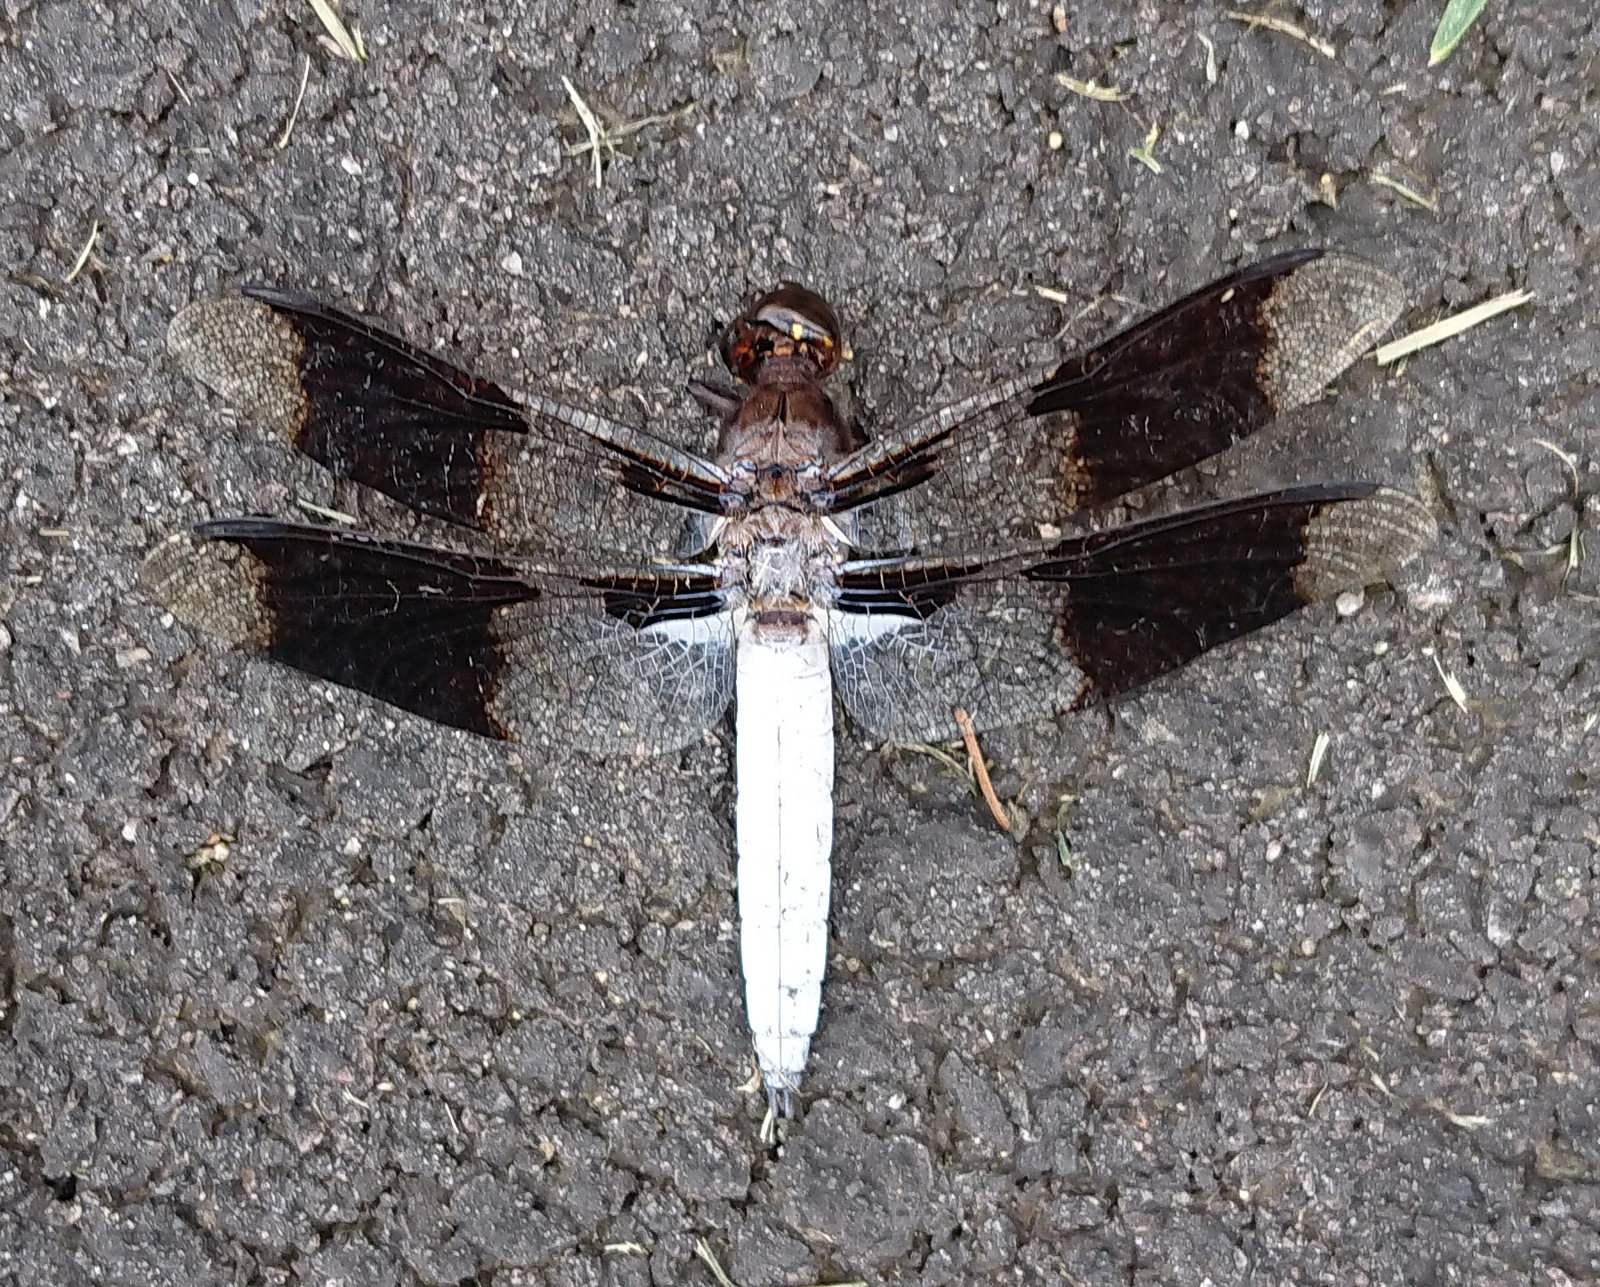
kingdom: Animalia
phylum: Arthropoda
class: Insecta
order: Odonata
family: Libellulidae
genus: Plathemis
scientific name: Plathemis lydia
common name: Common whitetail
